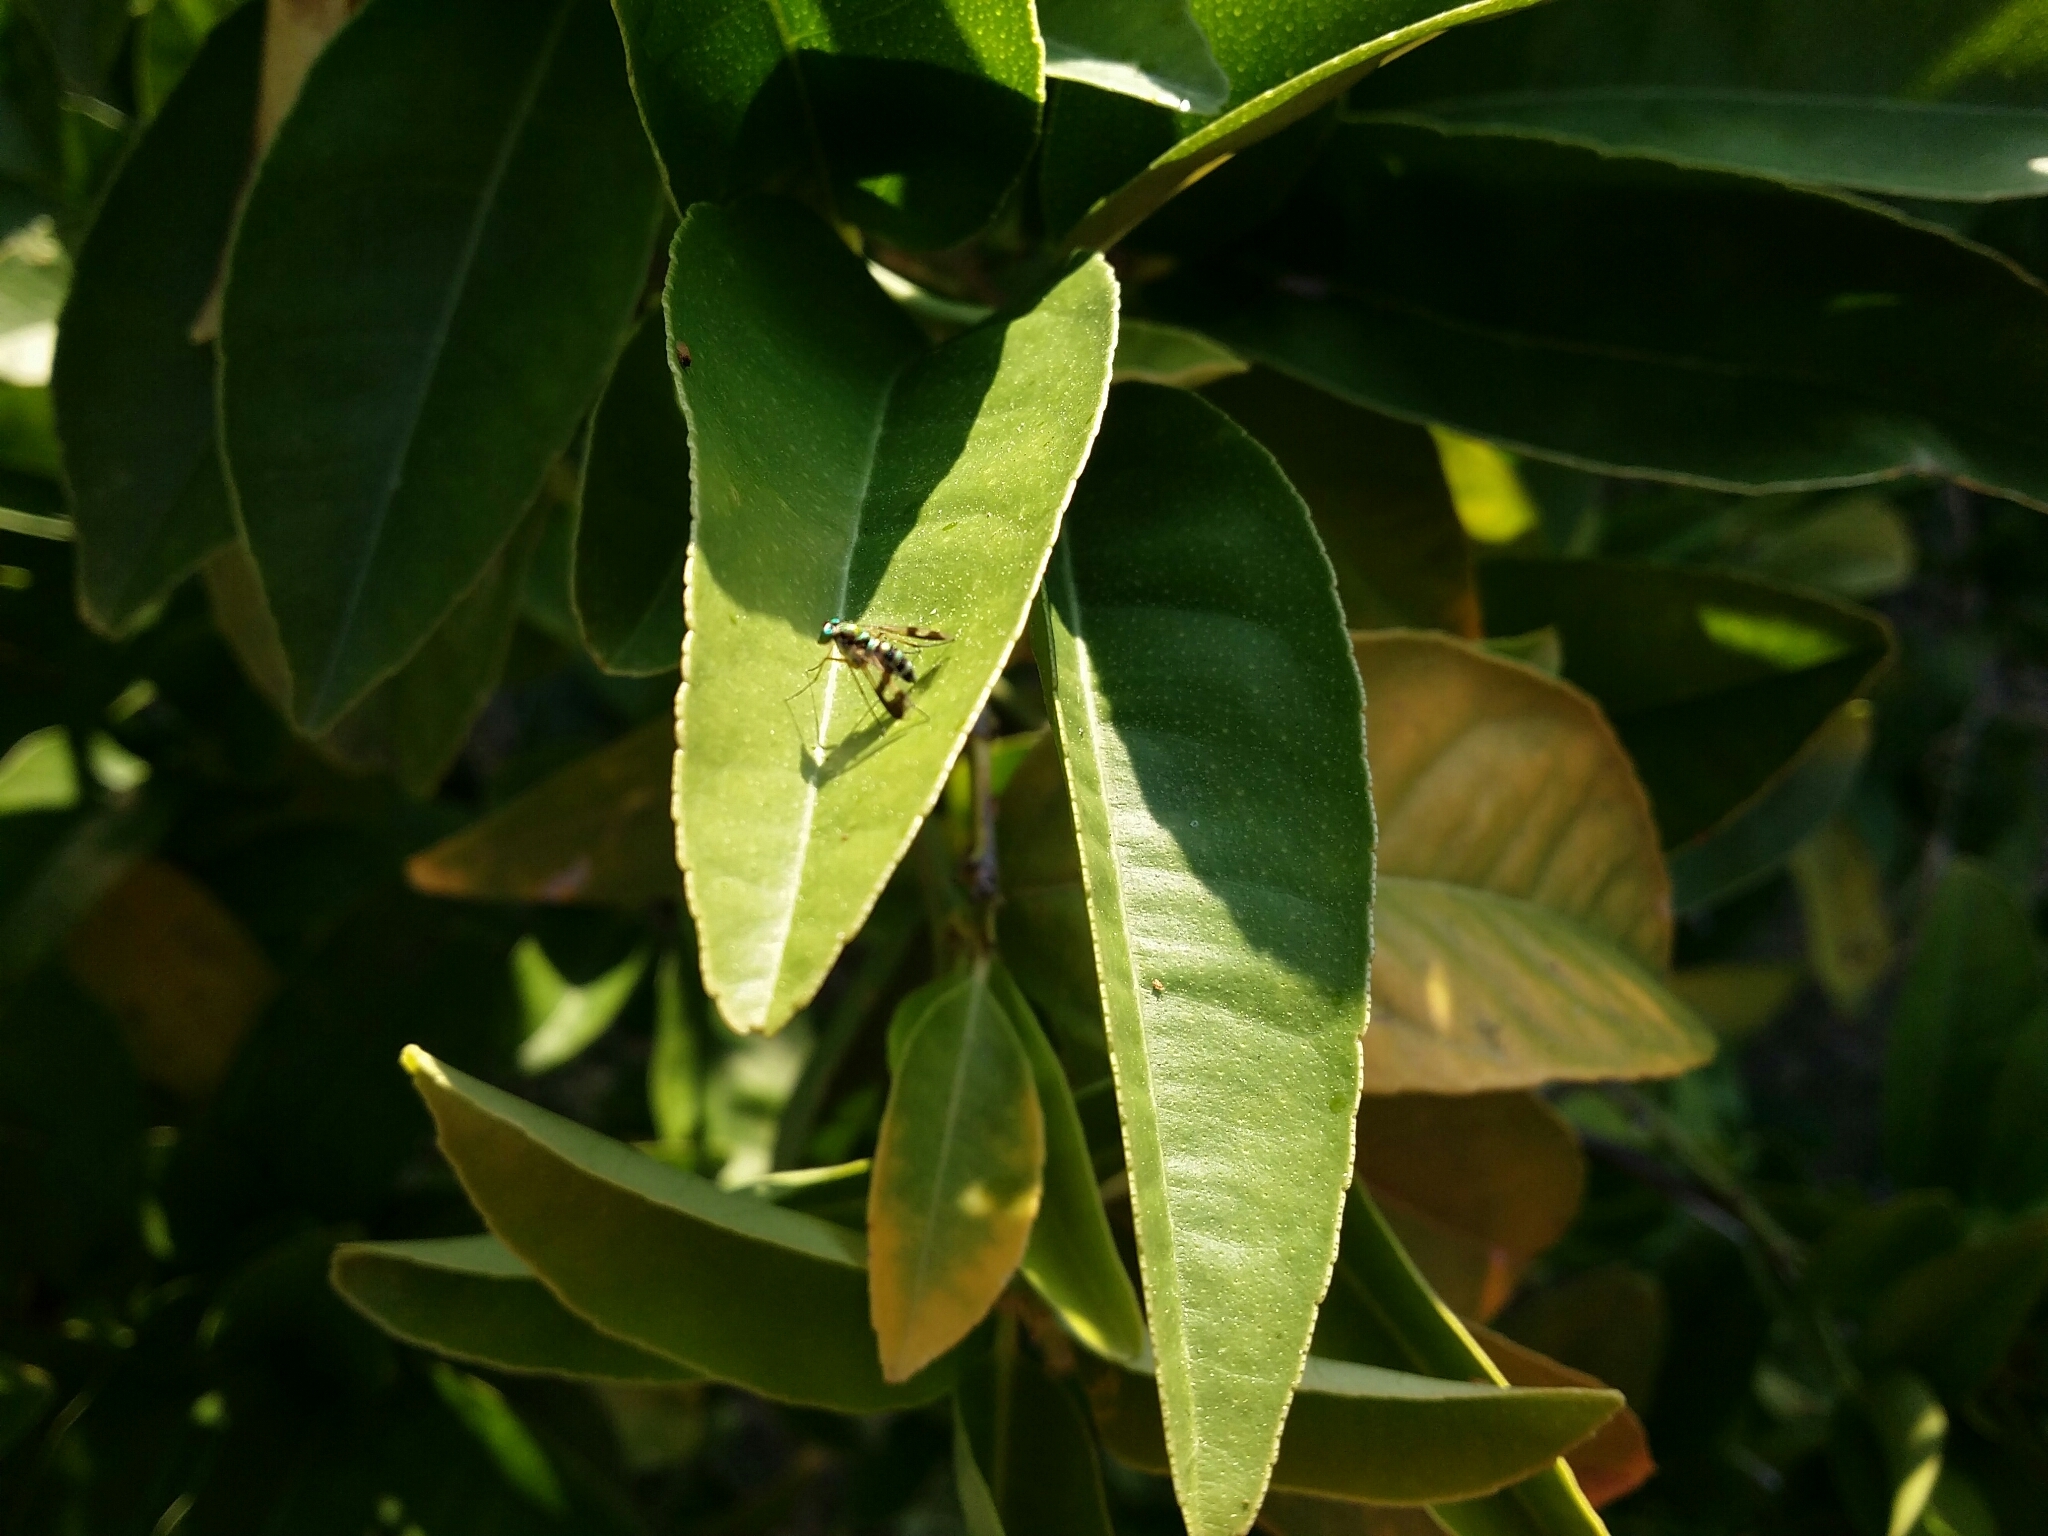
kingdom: Animalia
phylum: Arthropoda
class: Insecta
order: Diptera
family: Dolichopodidae
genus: Austrosciapus
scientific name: Austrosciapus connexus
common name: Green long-legged fly
